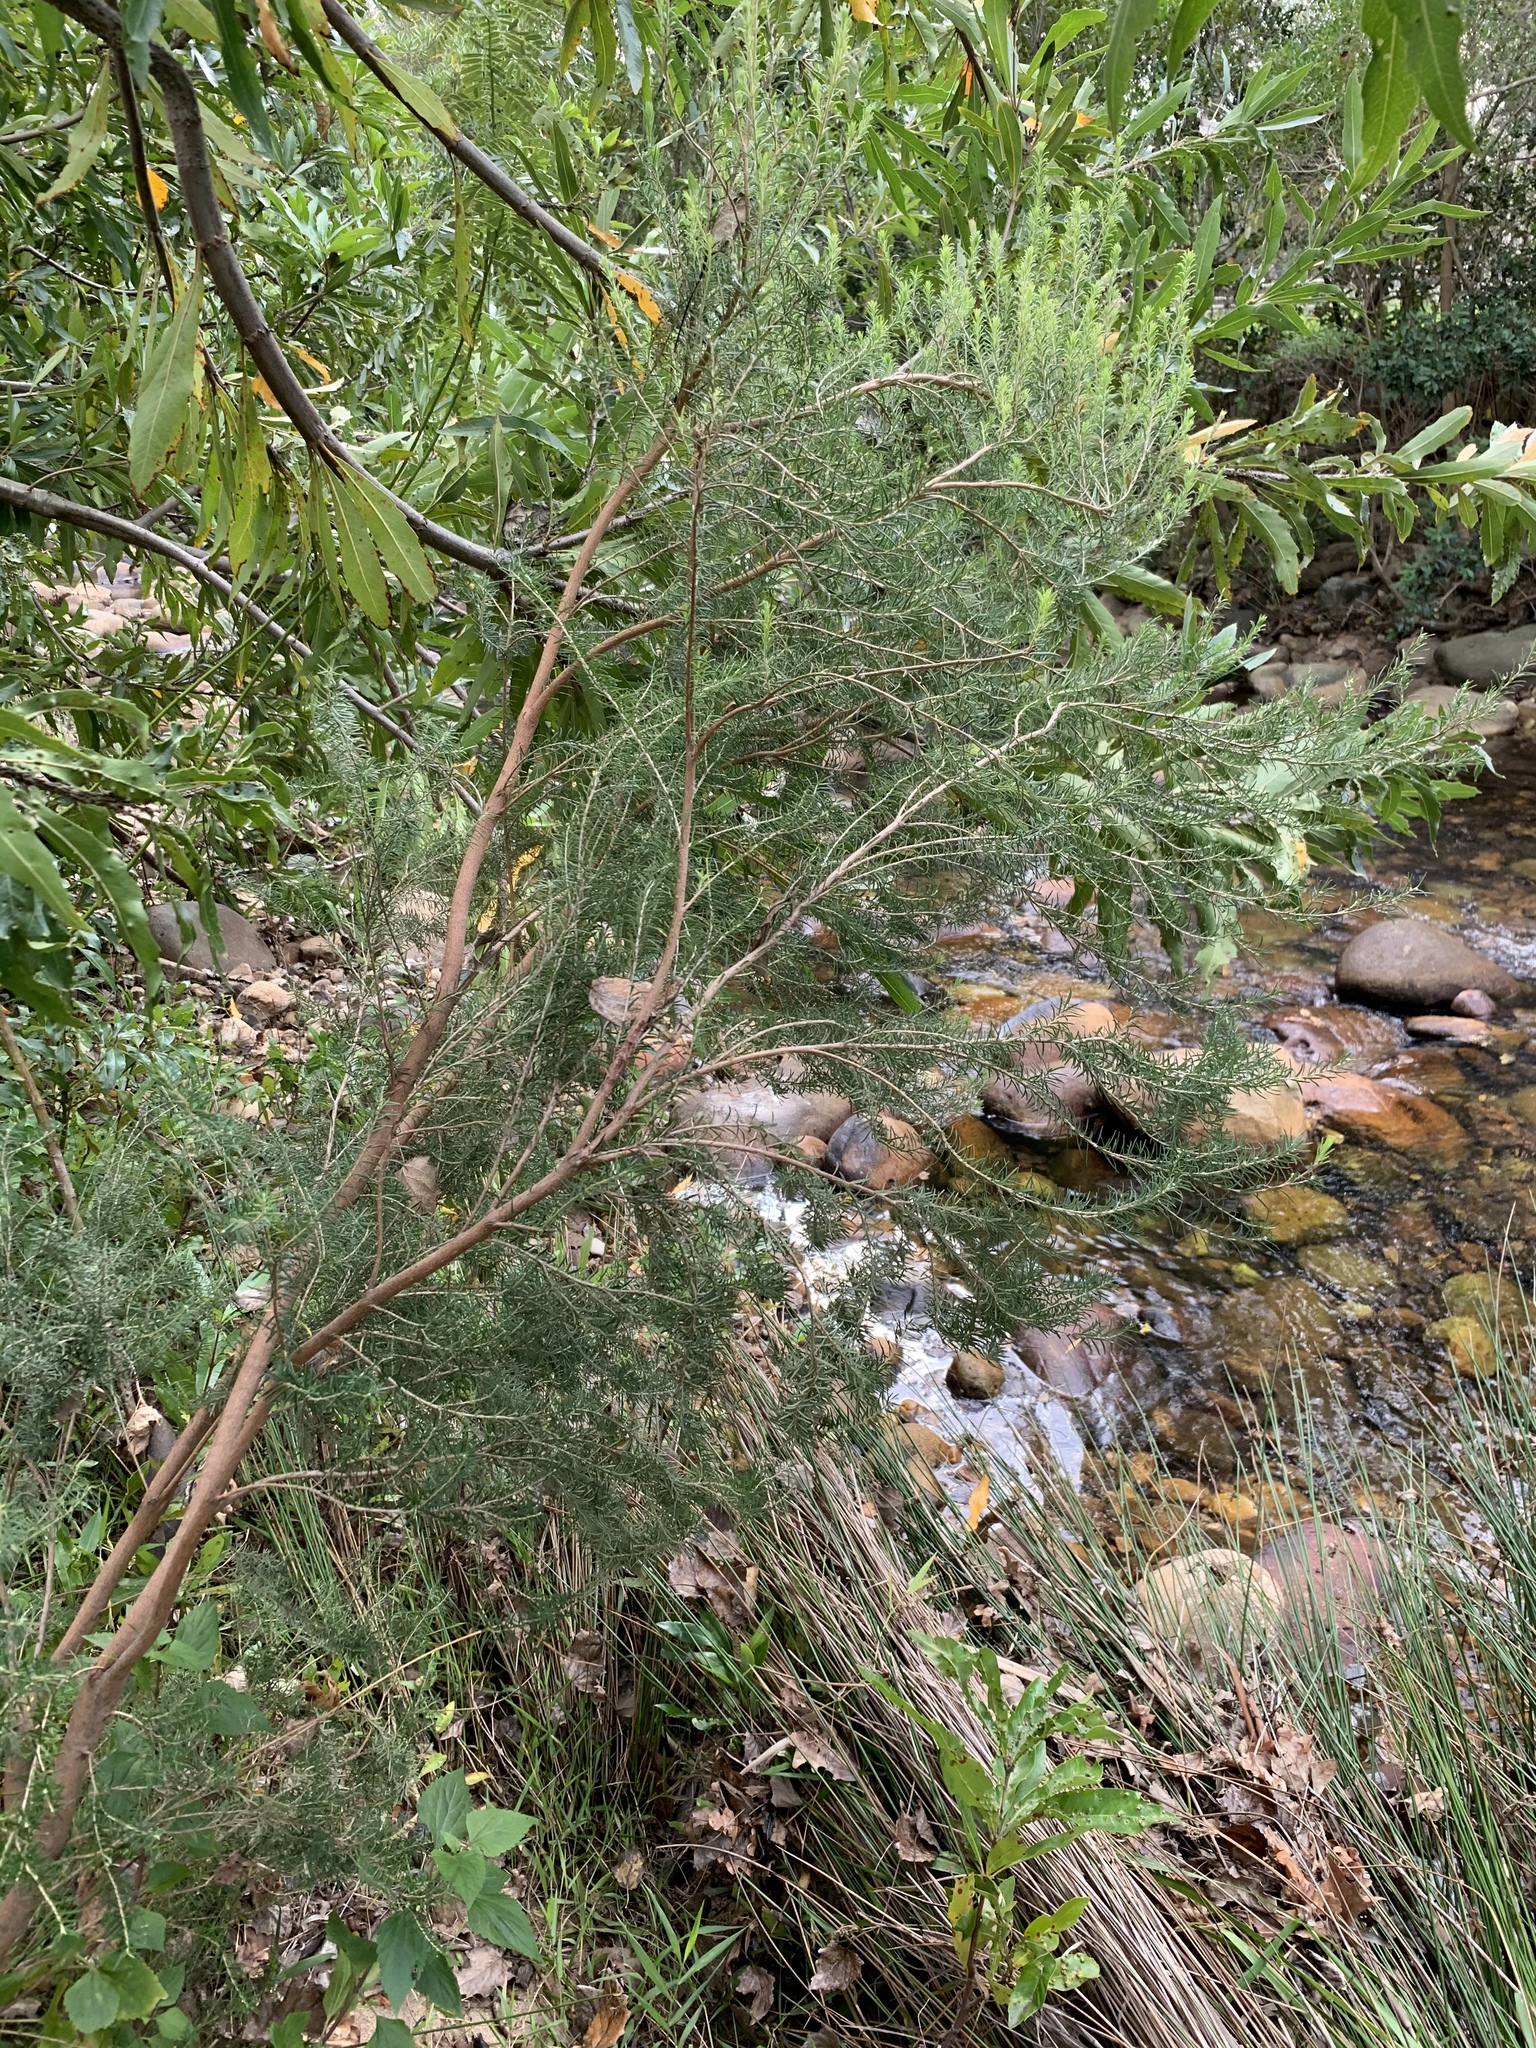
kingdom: Plantae
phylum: Tracheophyta
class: Magnoliopsida
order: Ericales
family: Ericaceae
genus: Erica
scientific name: Erica caffra
